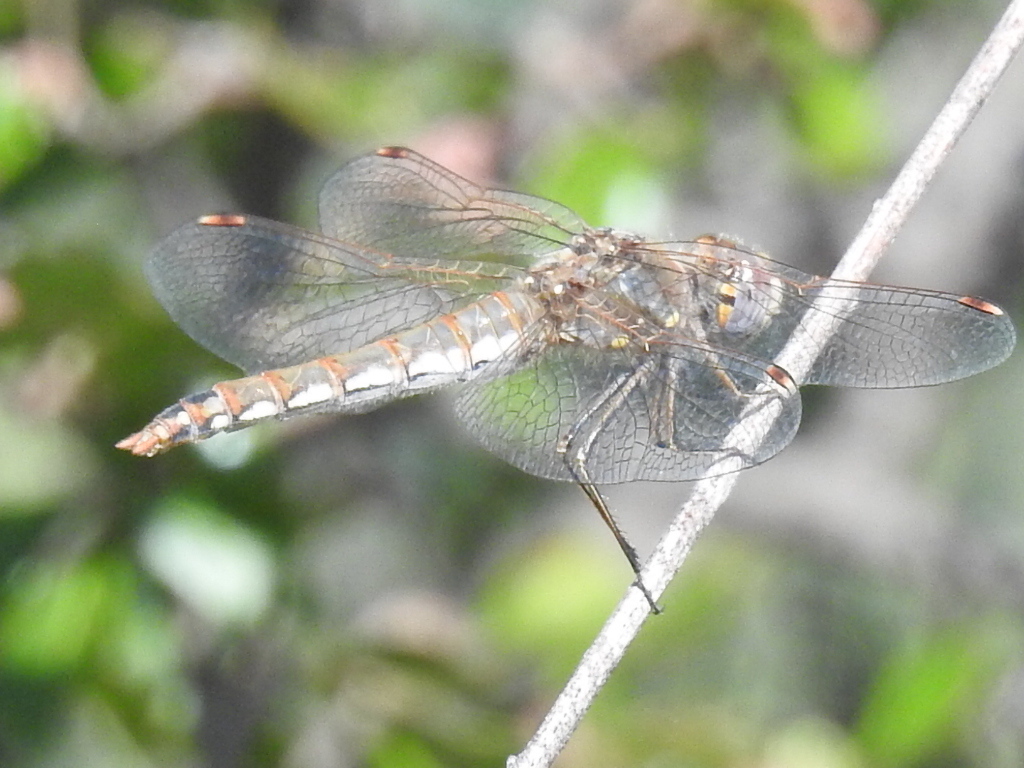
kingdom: Animalia
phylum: Arthropoda
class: Insecta
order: Odonata
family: Libellulidae
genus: Sympetrum
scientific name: Sympetrum corruptum
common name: Variegated meadowhawk
